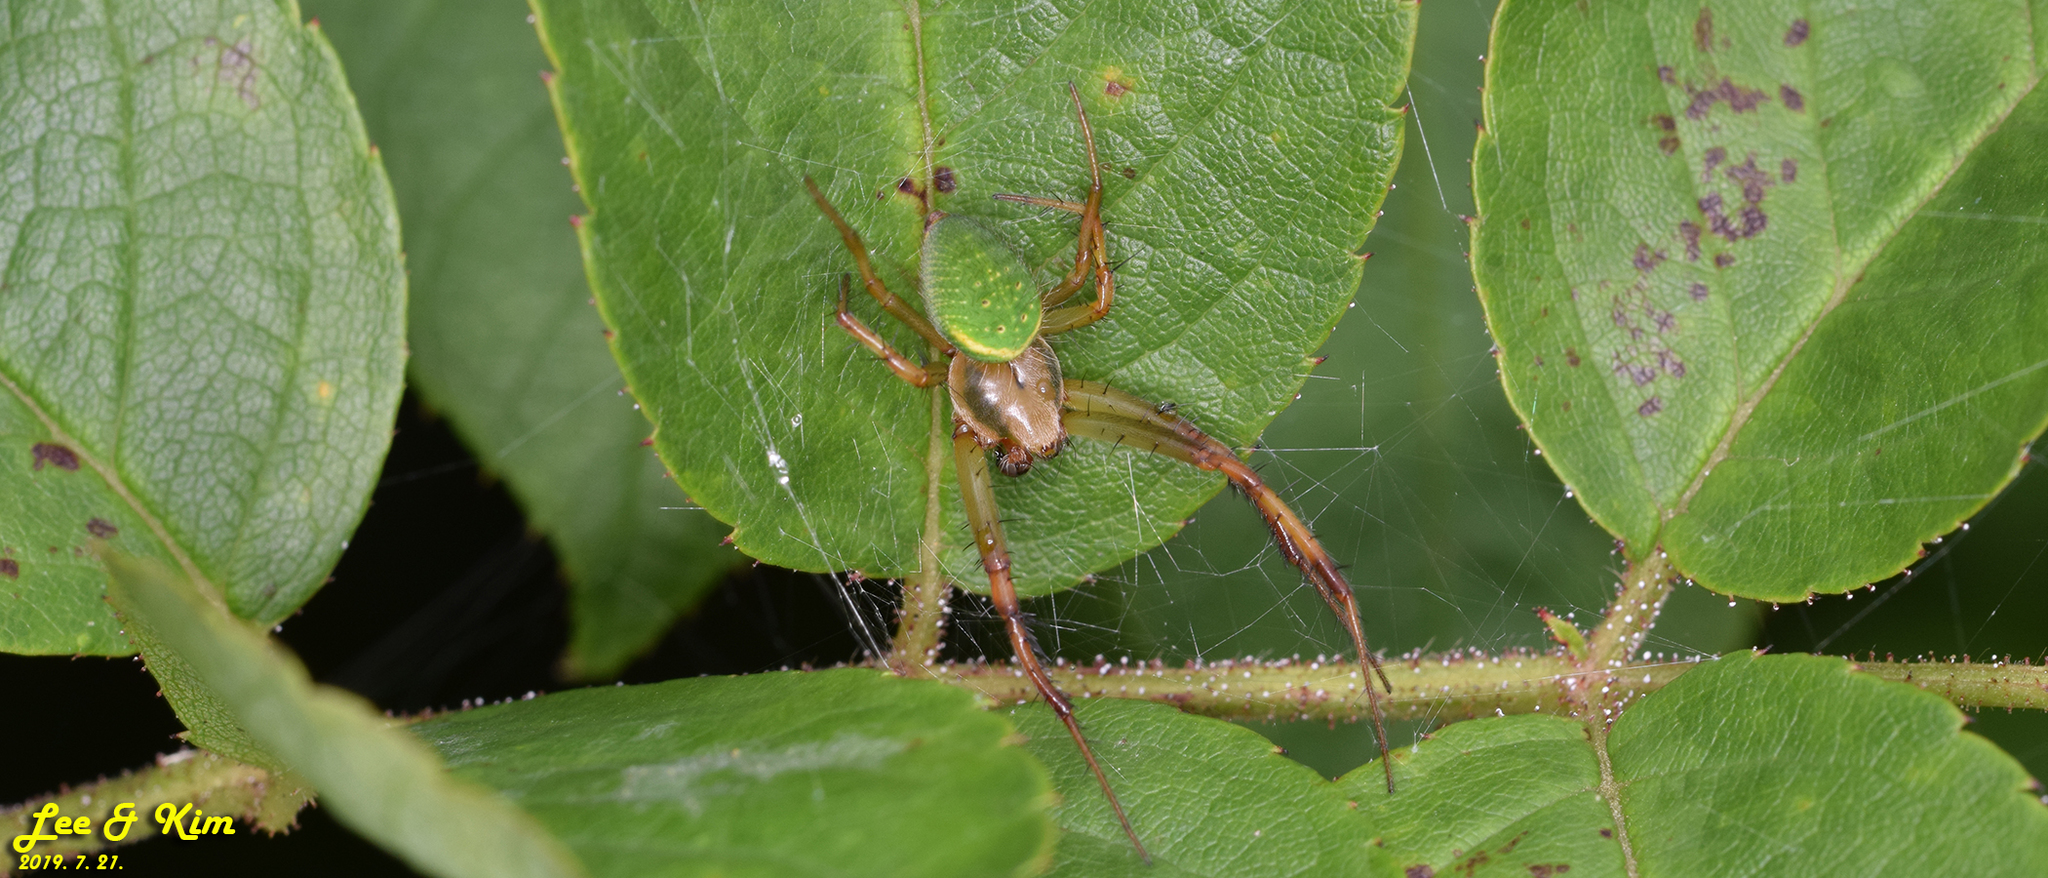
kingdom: Animalia
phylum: Arthropoda
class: Arachnida
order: Araneae
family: Araneidae
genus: Neoscona
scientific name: Neoscona scylloides
